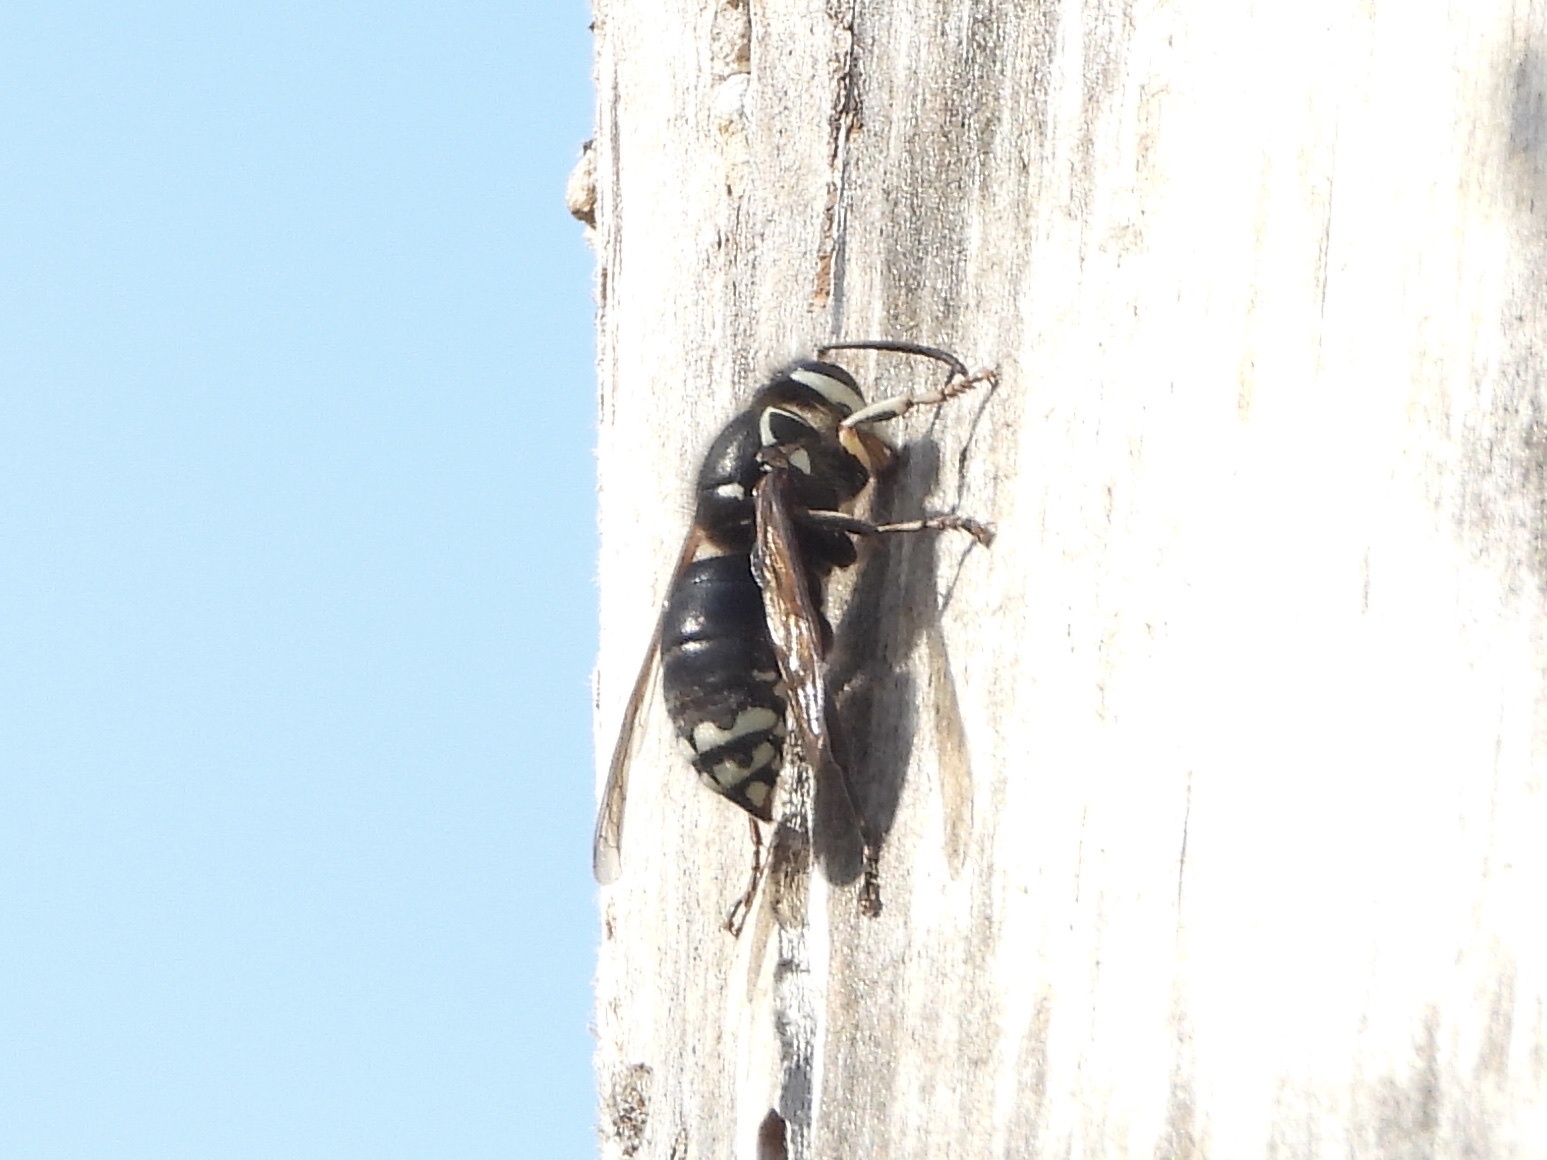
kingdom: Animalia
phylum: Arthropoda
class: Insecta
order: Hymenoptera
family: Vespidae
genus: Dolichovespula
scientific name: Dolichovespula maculata
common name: Bald-faced hornet
